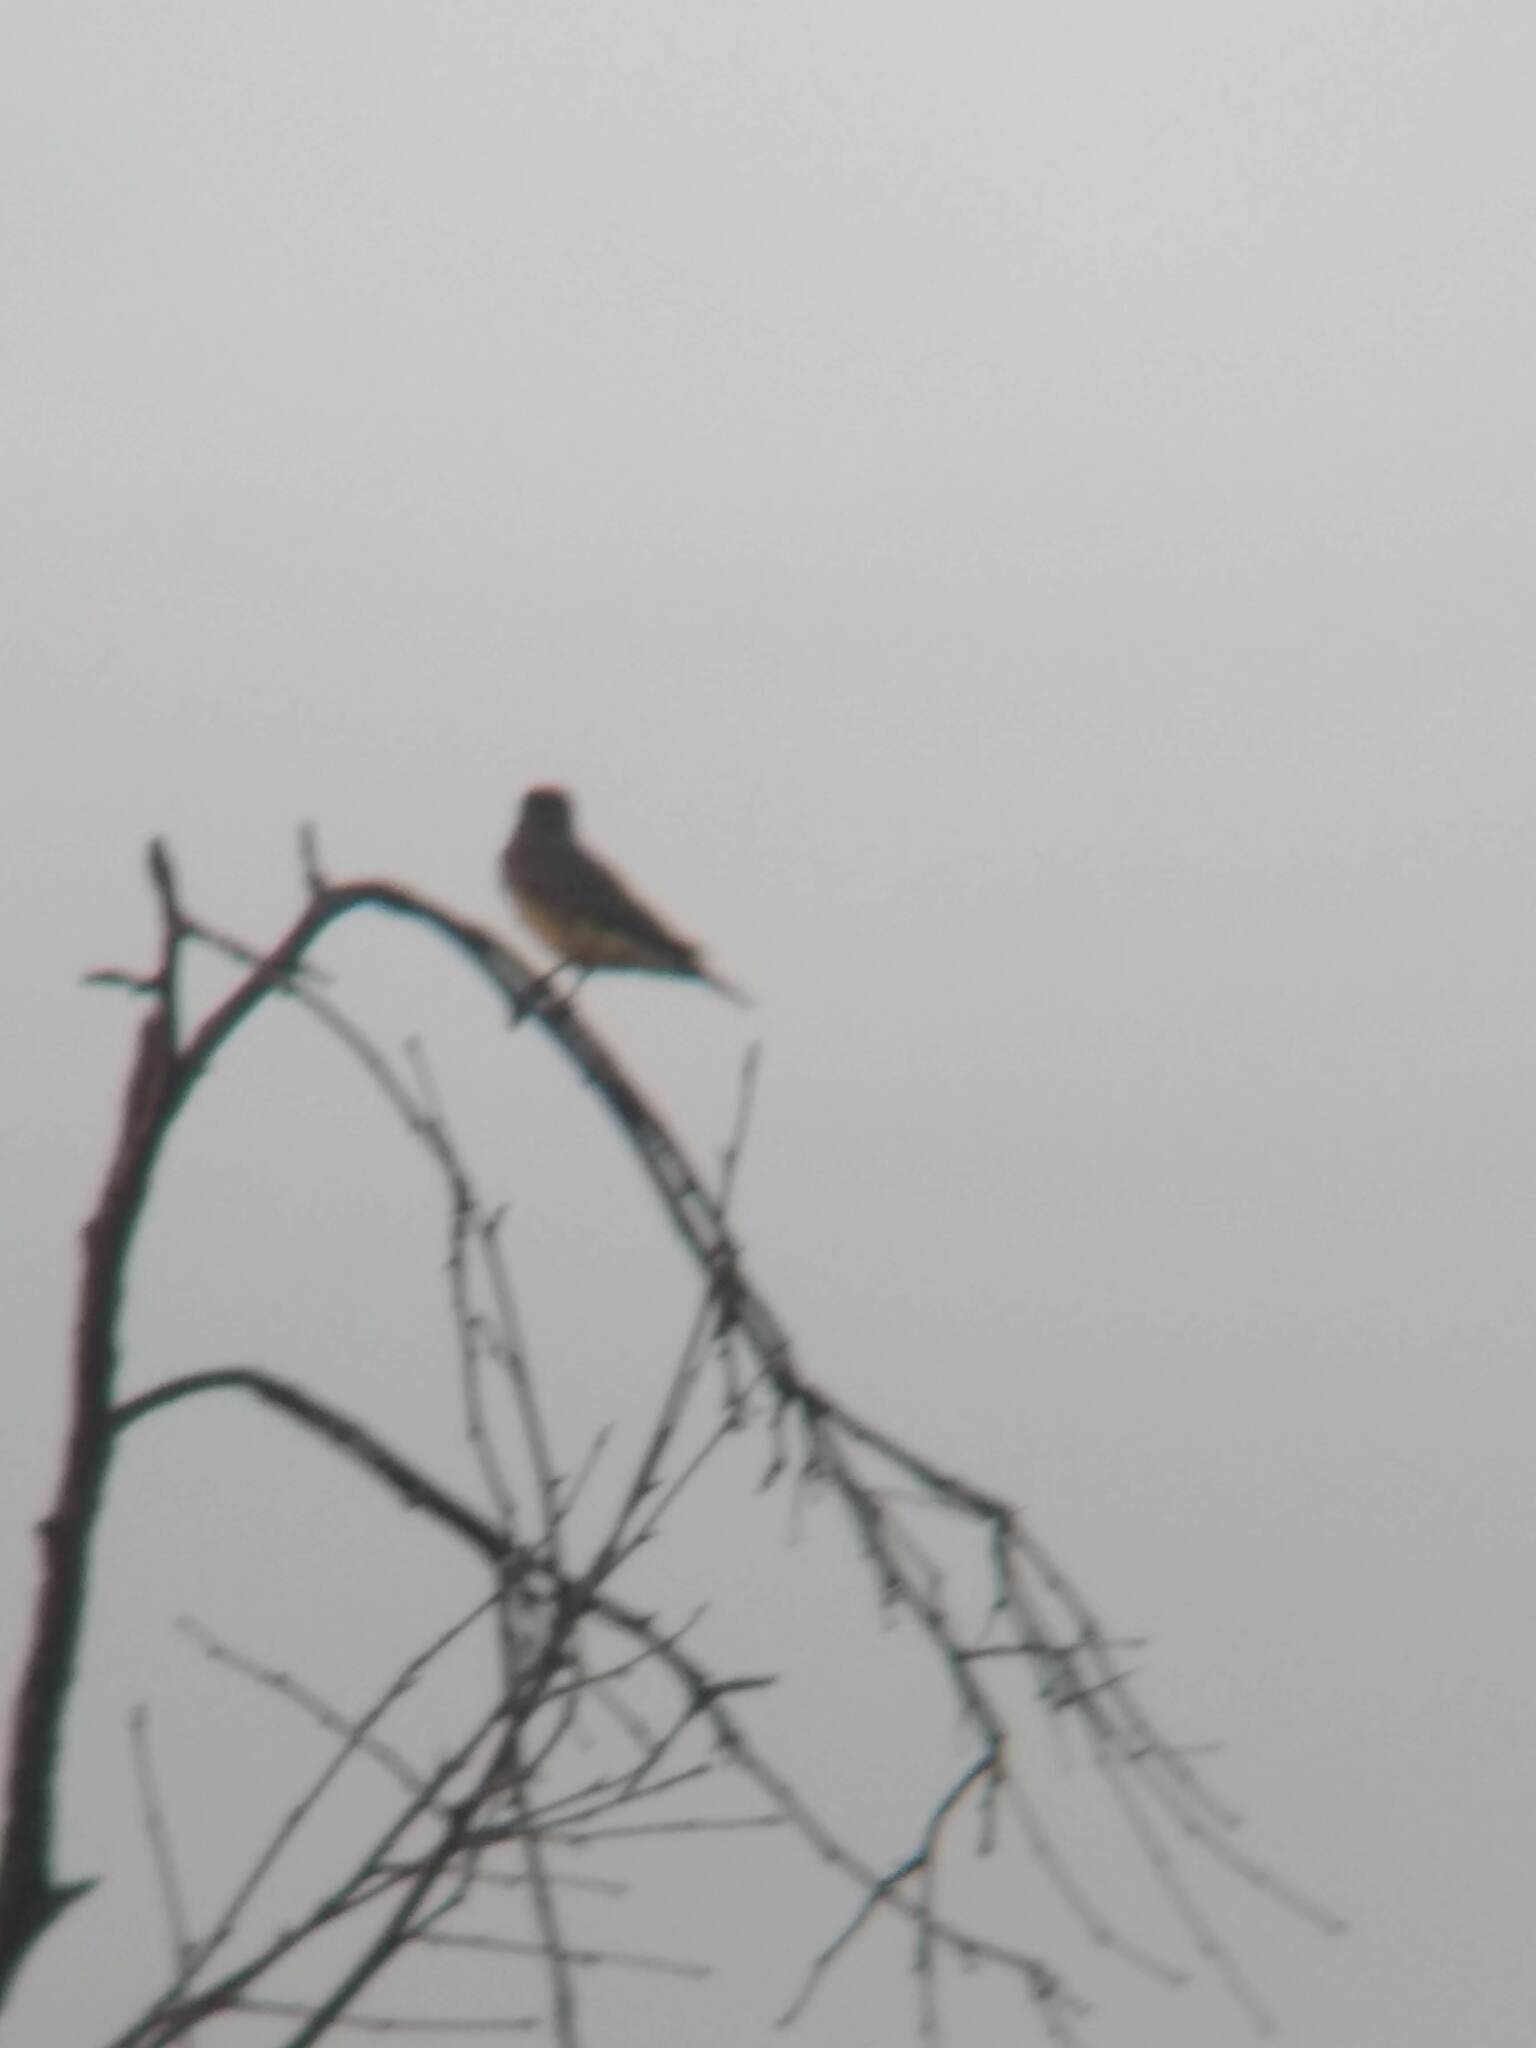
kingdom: Animalia
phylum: Chordata
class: Aves
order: Passeriformes
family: Tyrannidae
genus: Sayornis
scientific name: Sayornis saya
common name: Say's phoebe
